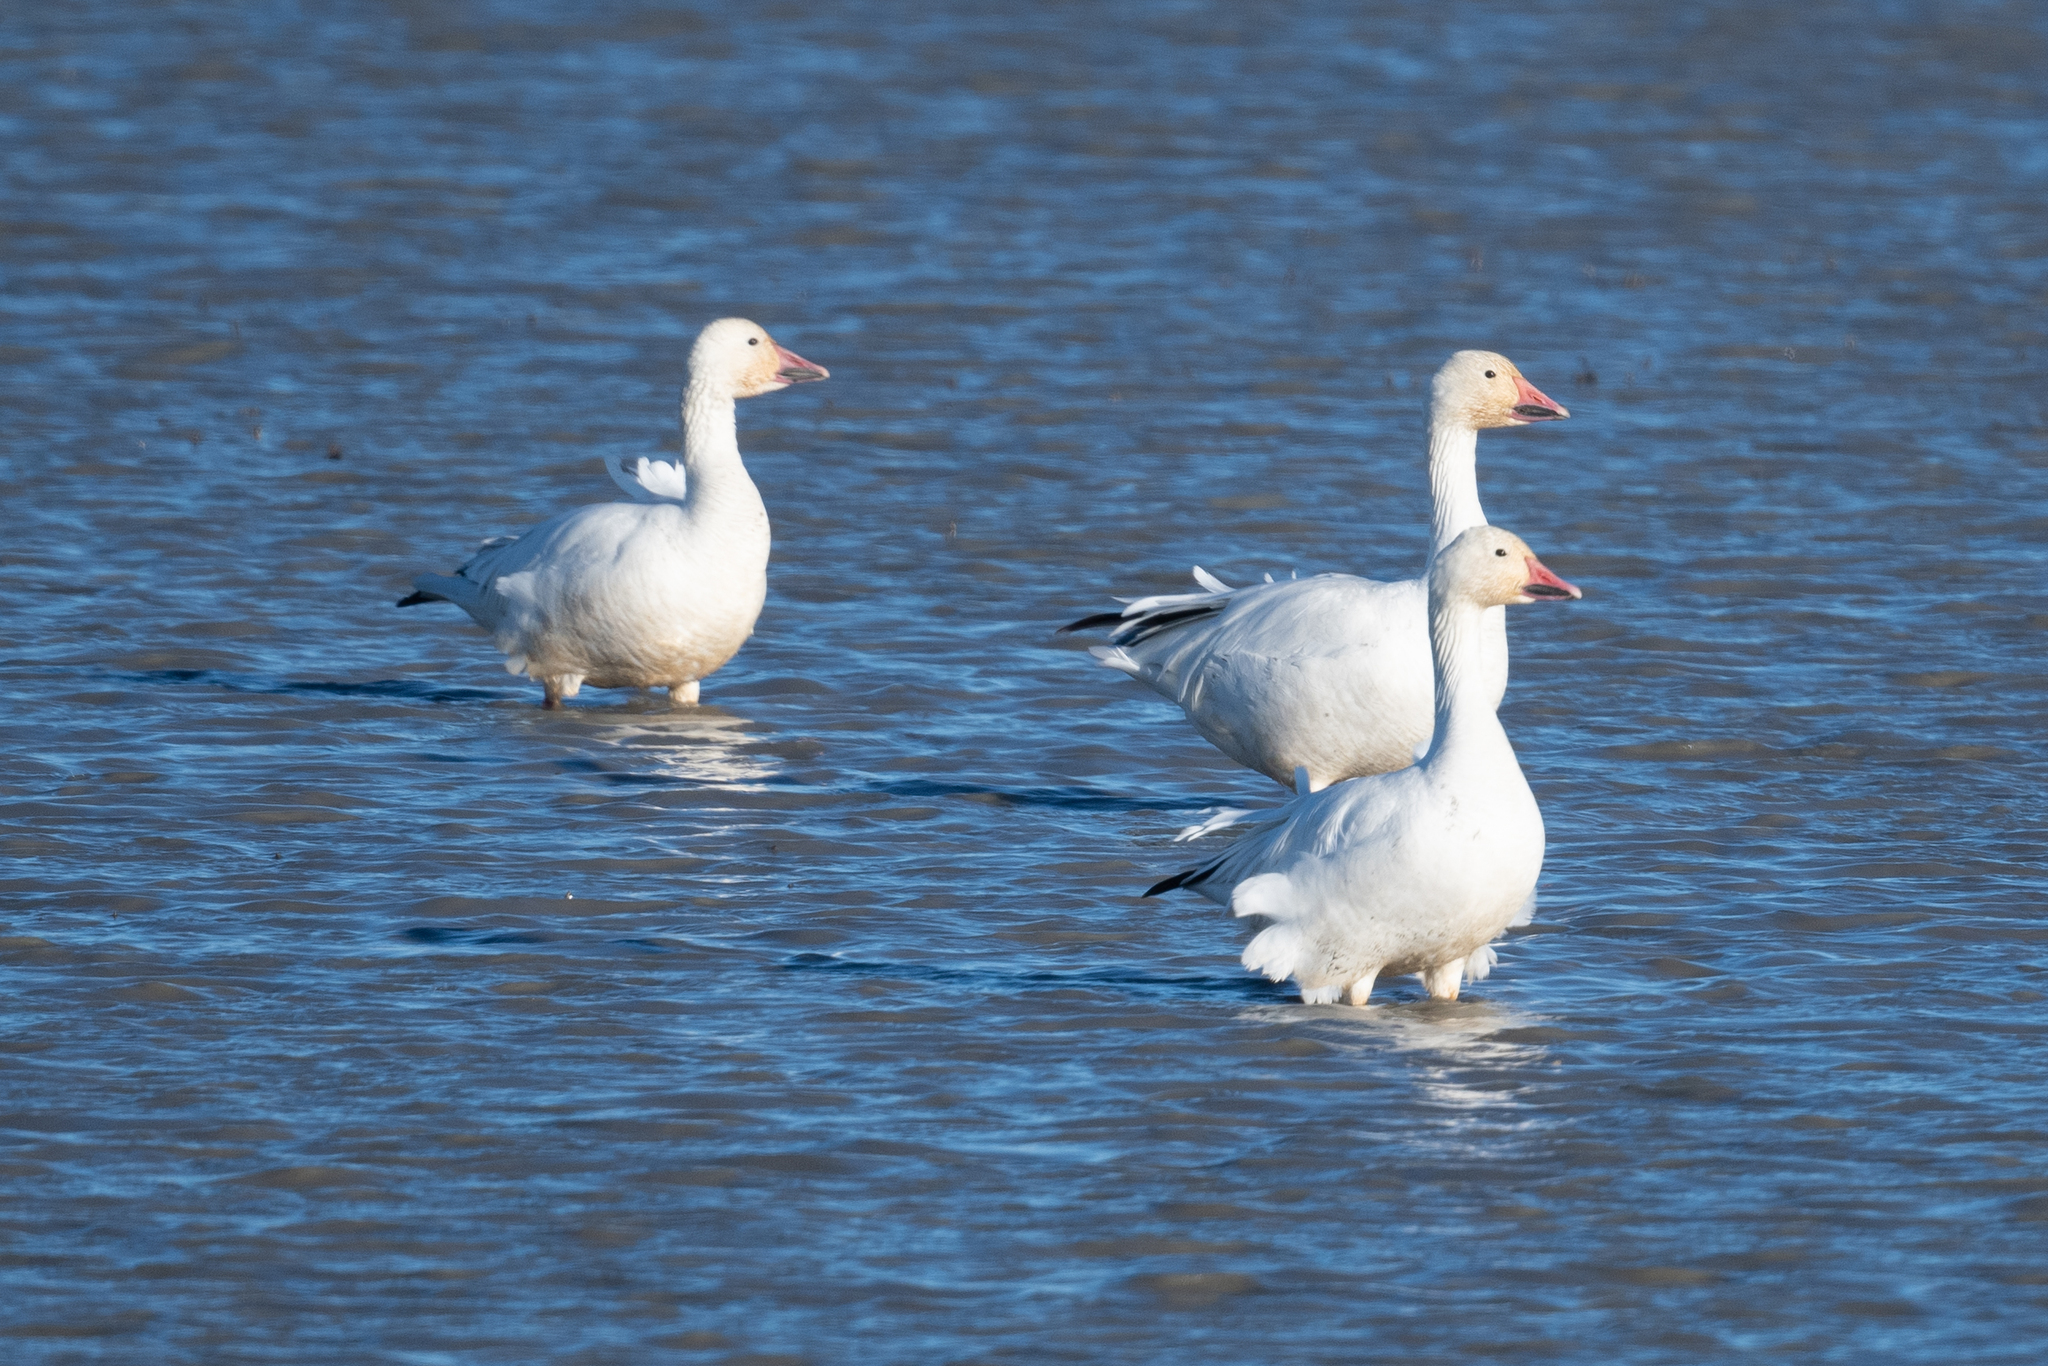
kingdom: Animalia
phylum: Chordata
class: Aves
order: Anseriformes
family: Anatidae
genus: Anser
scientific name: Anser caerulescens
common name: Snow goose
